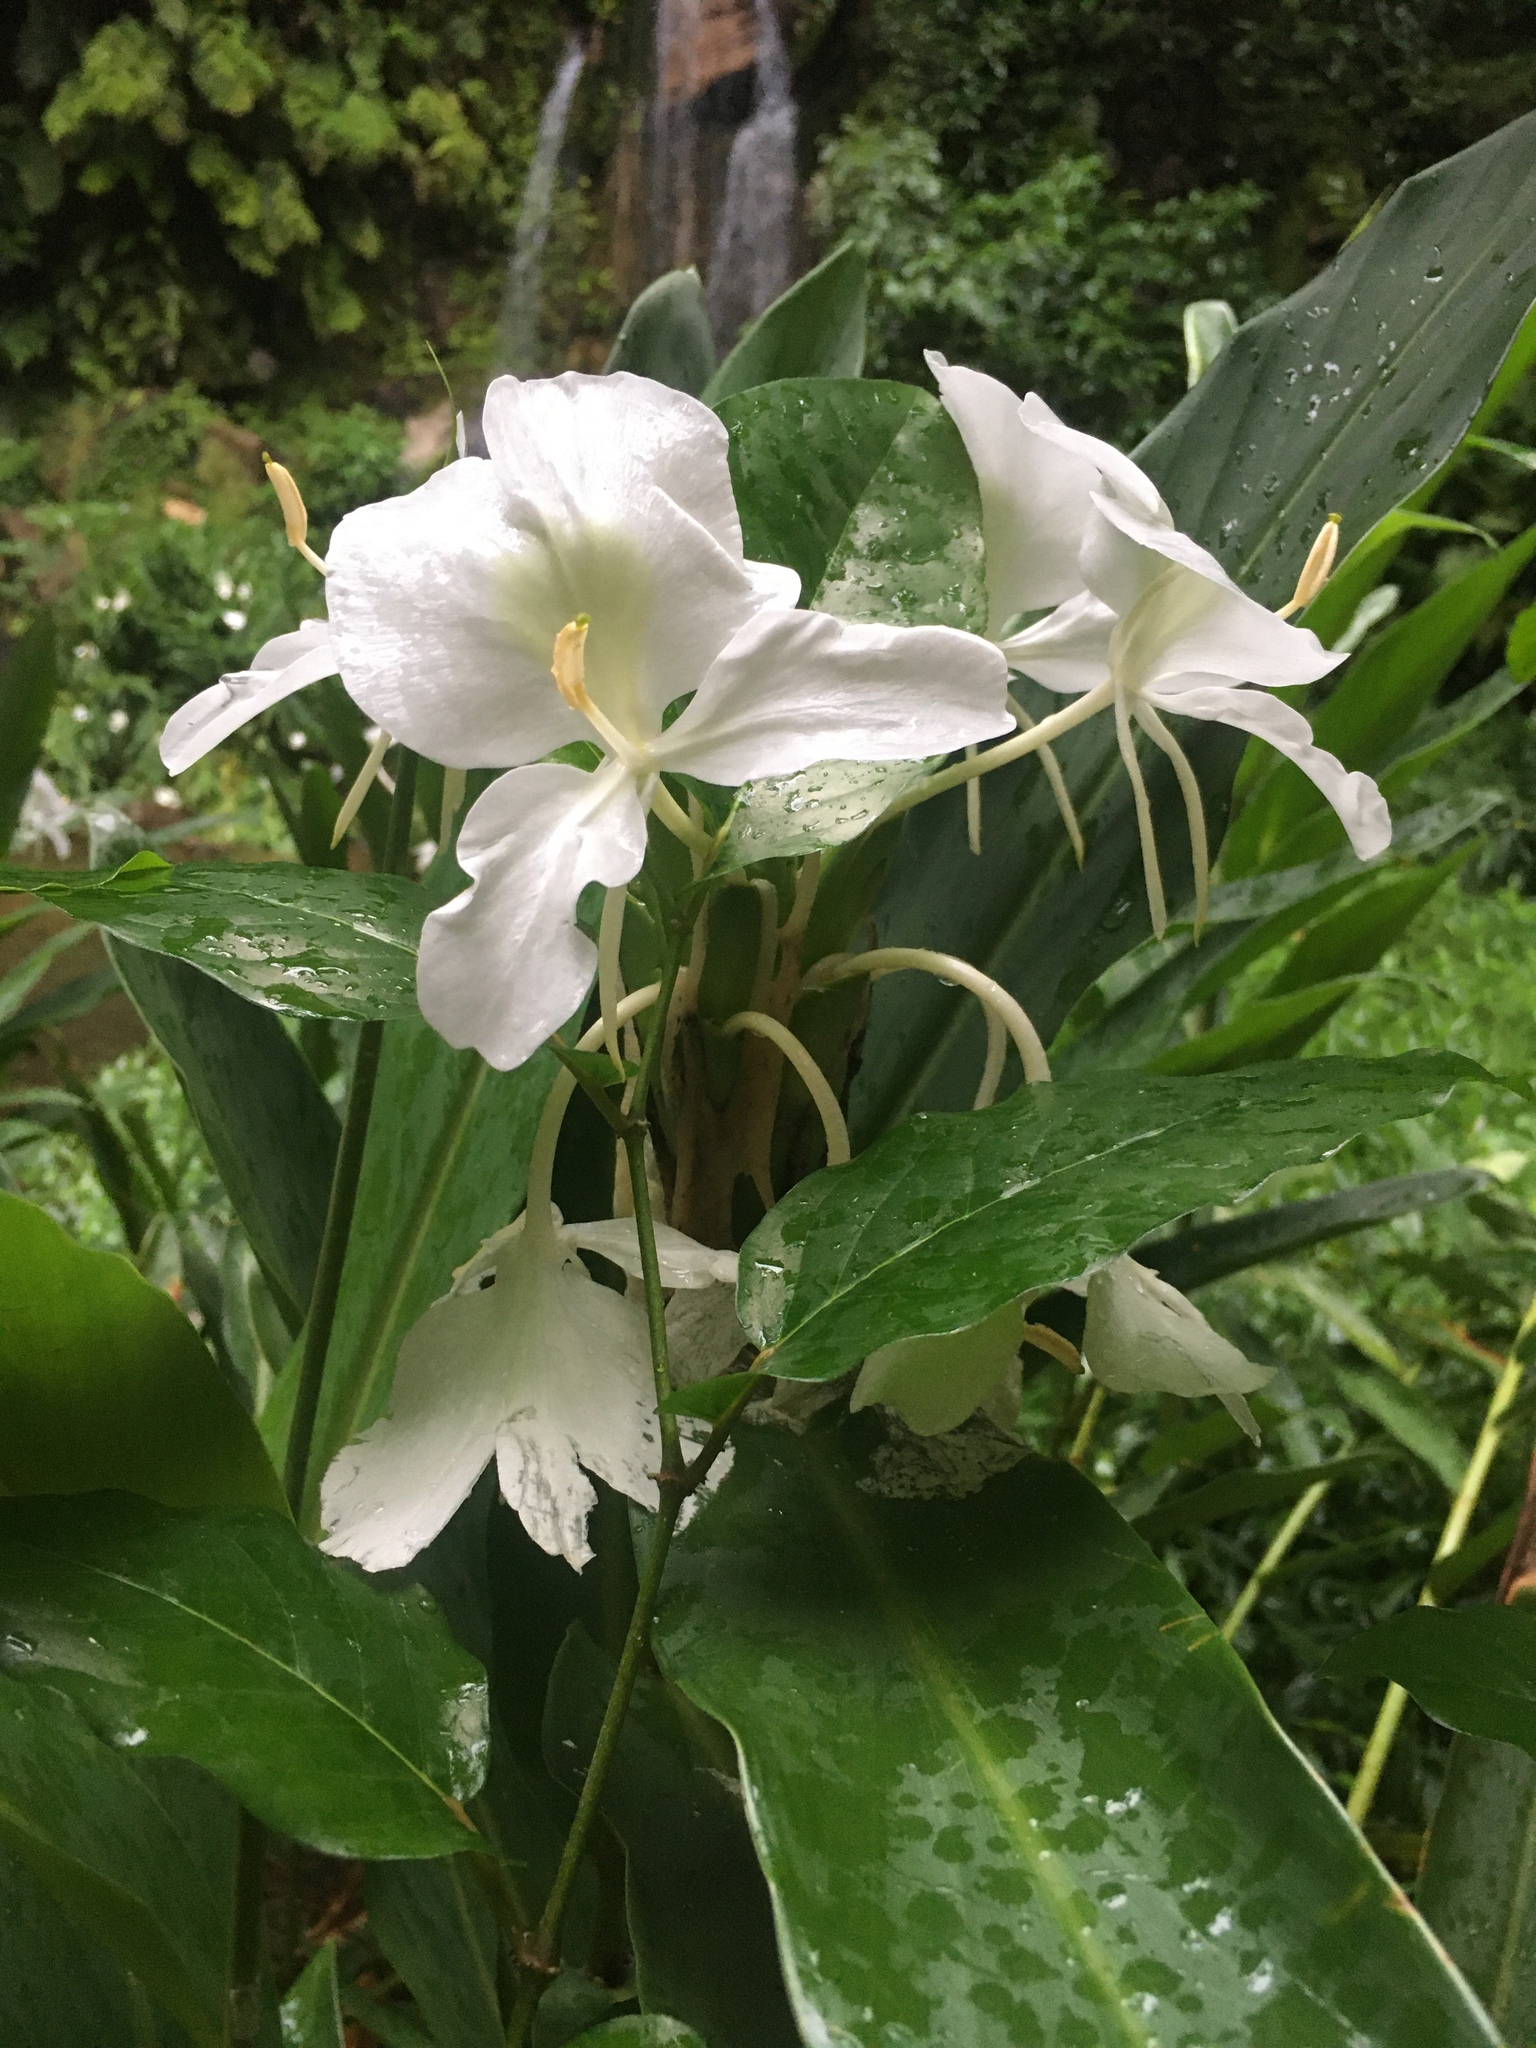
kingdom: Plantae
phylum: Tracheophyta
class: Liliopsida
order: Zingiberales
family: Zingiberaceae
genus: Hedychium
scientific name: Hedychium coronarium
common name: White garland-lily
